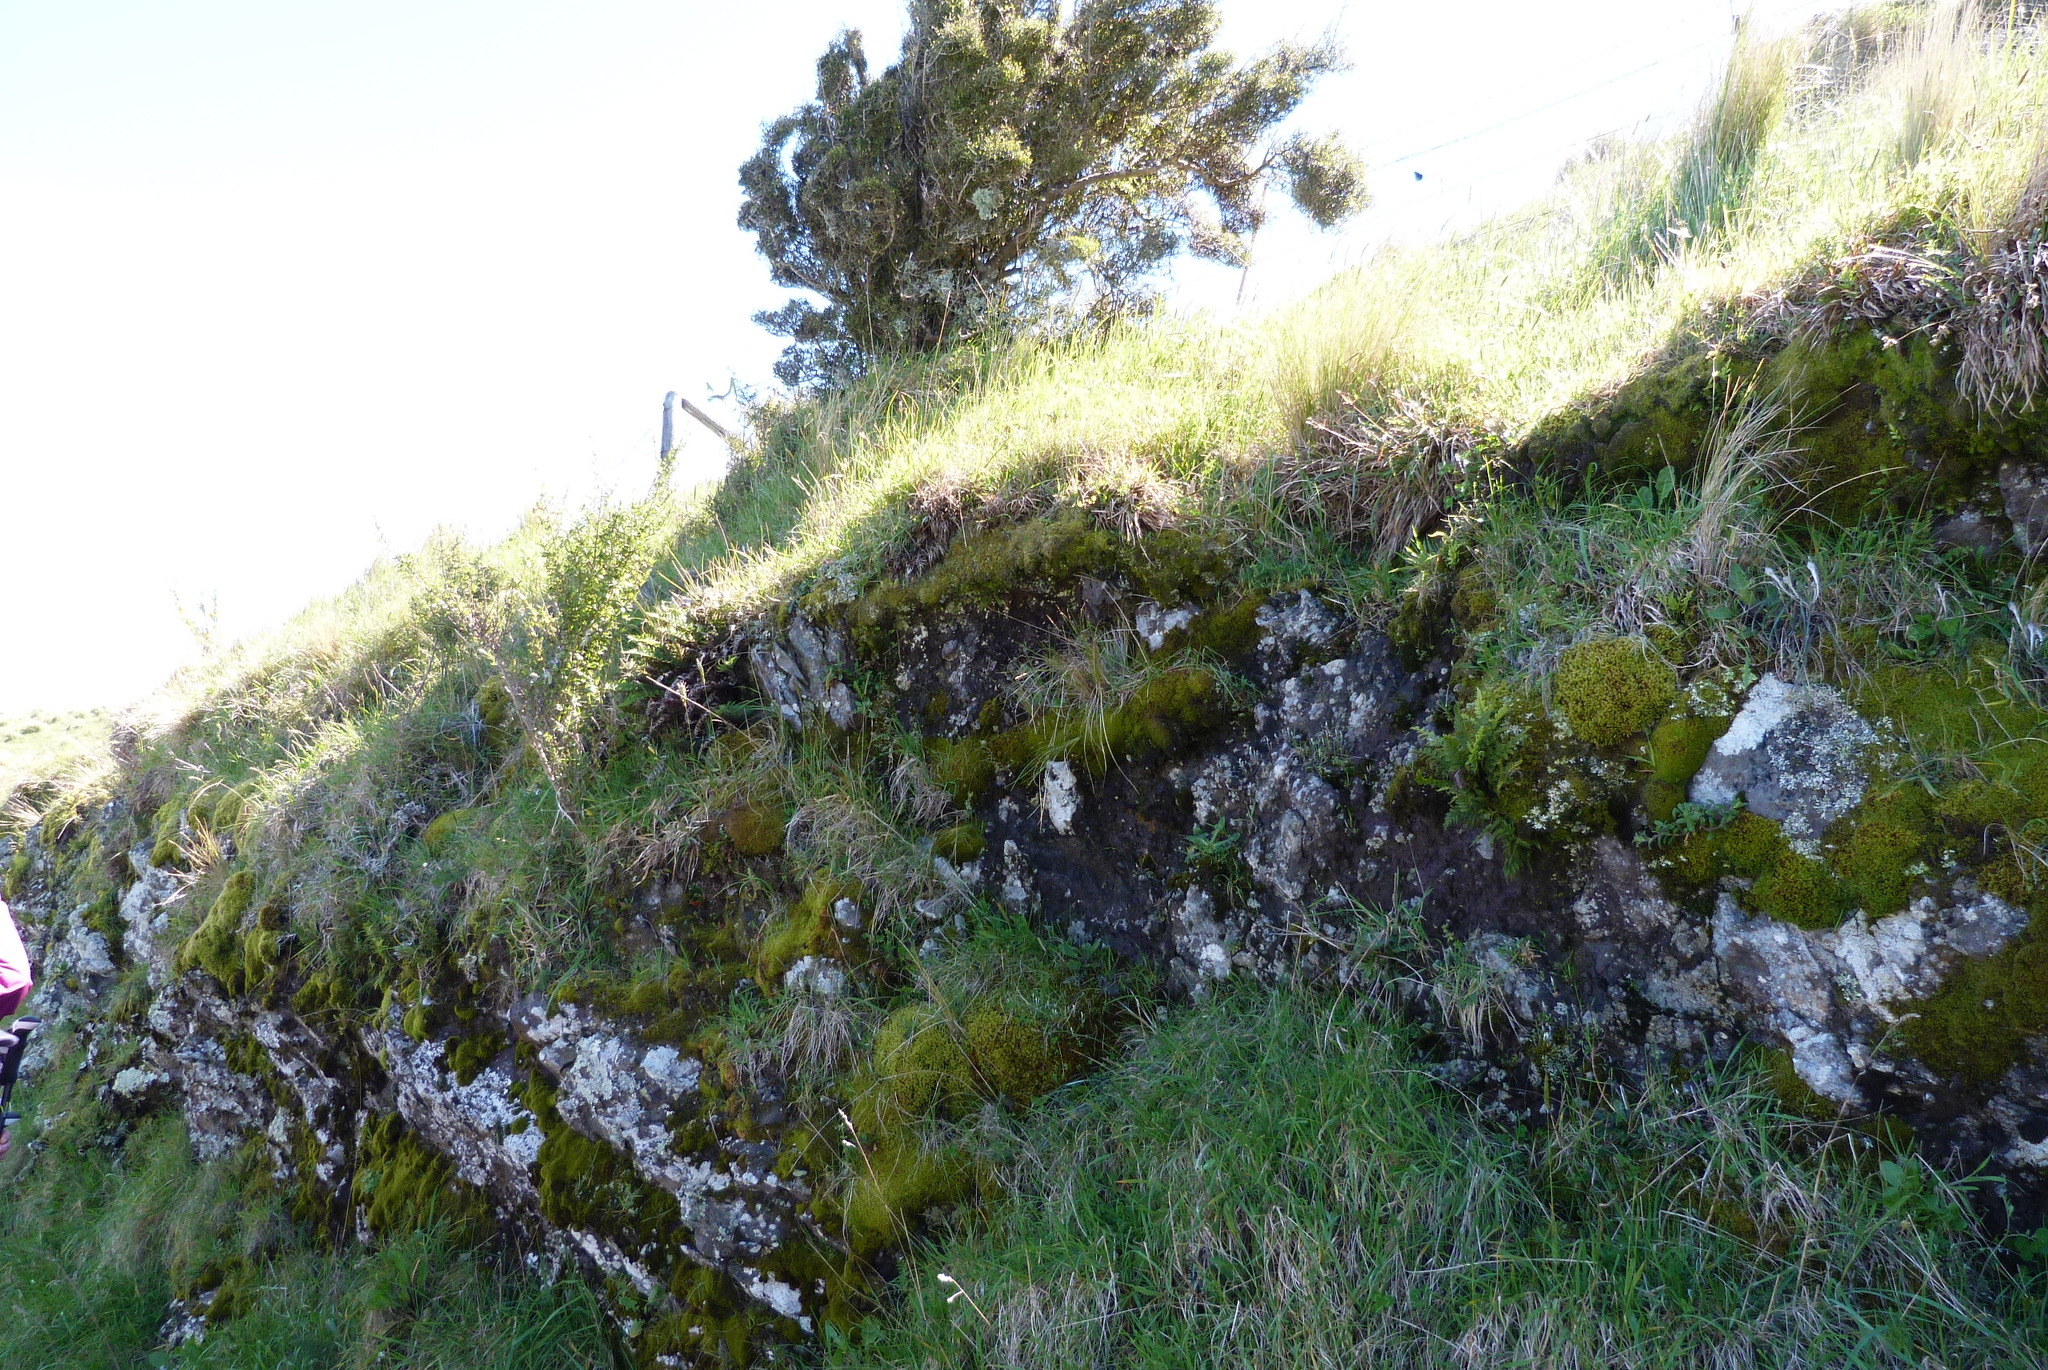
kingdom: Plantae
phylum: Tracheophyta
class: Magnoliopsida
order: Asterales
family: Asteraceae
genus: Celmisia
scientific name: Celmisia gracilenta
